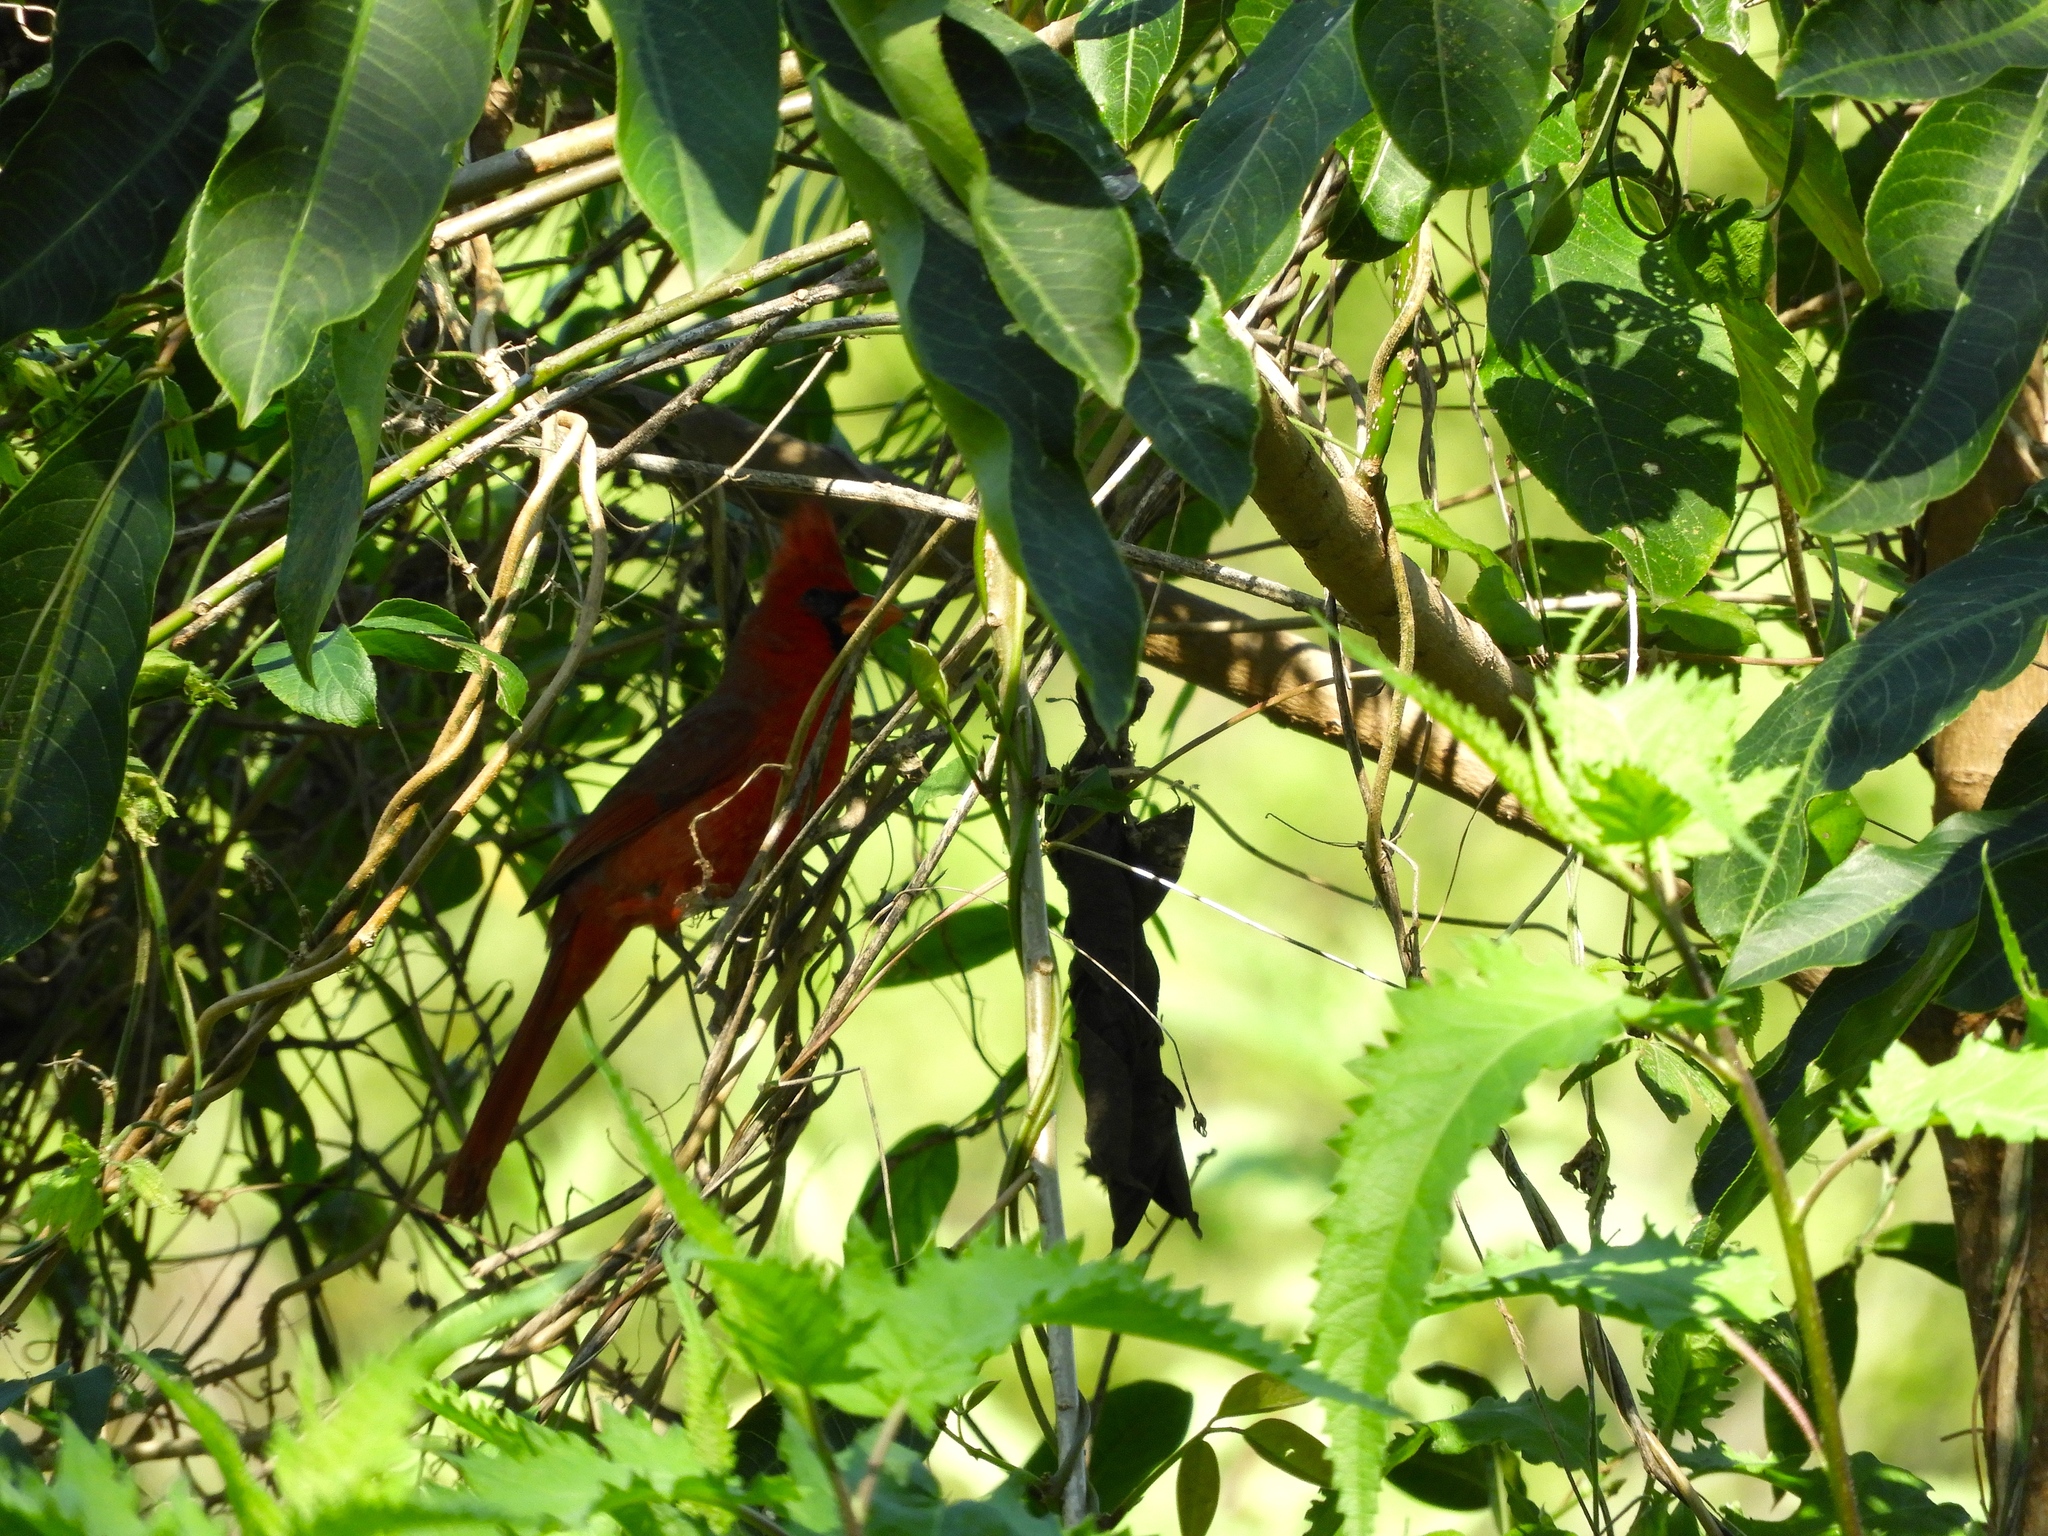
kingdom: Animalia
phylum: Chordata
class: Aves
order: Passeriformes
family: Cardinalidae
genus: Cardinalis
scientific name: Cardinalis cardinalis
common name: Northern cardinal
